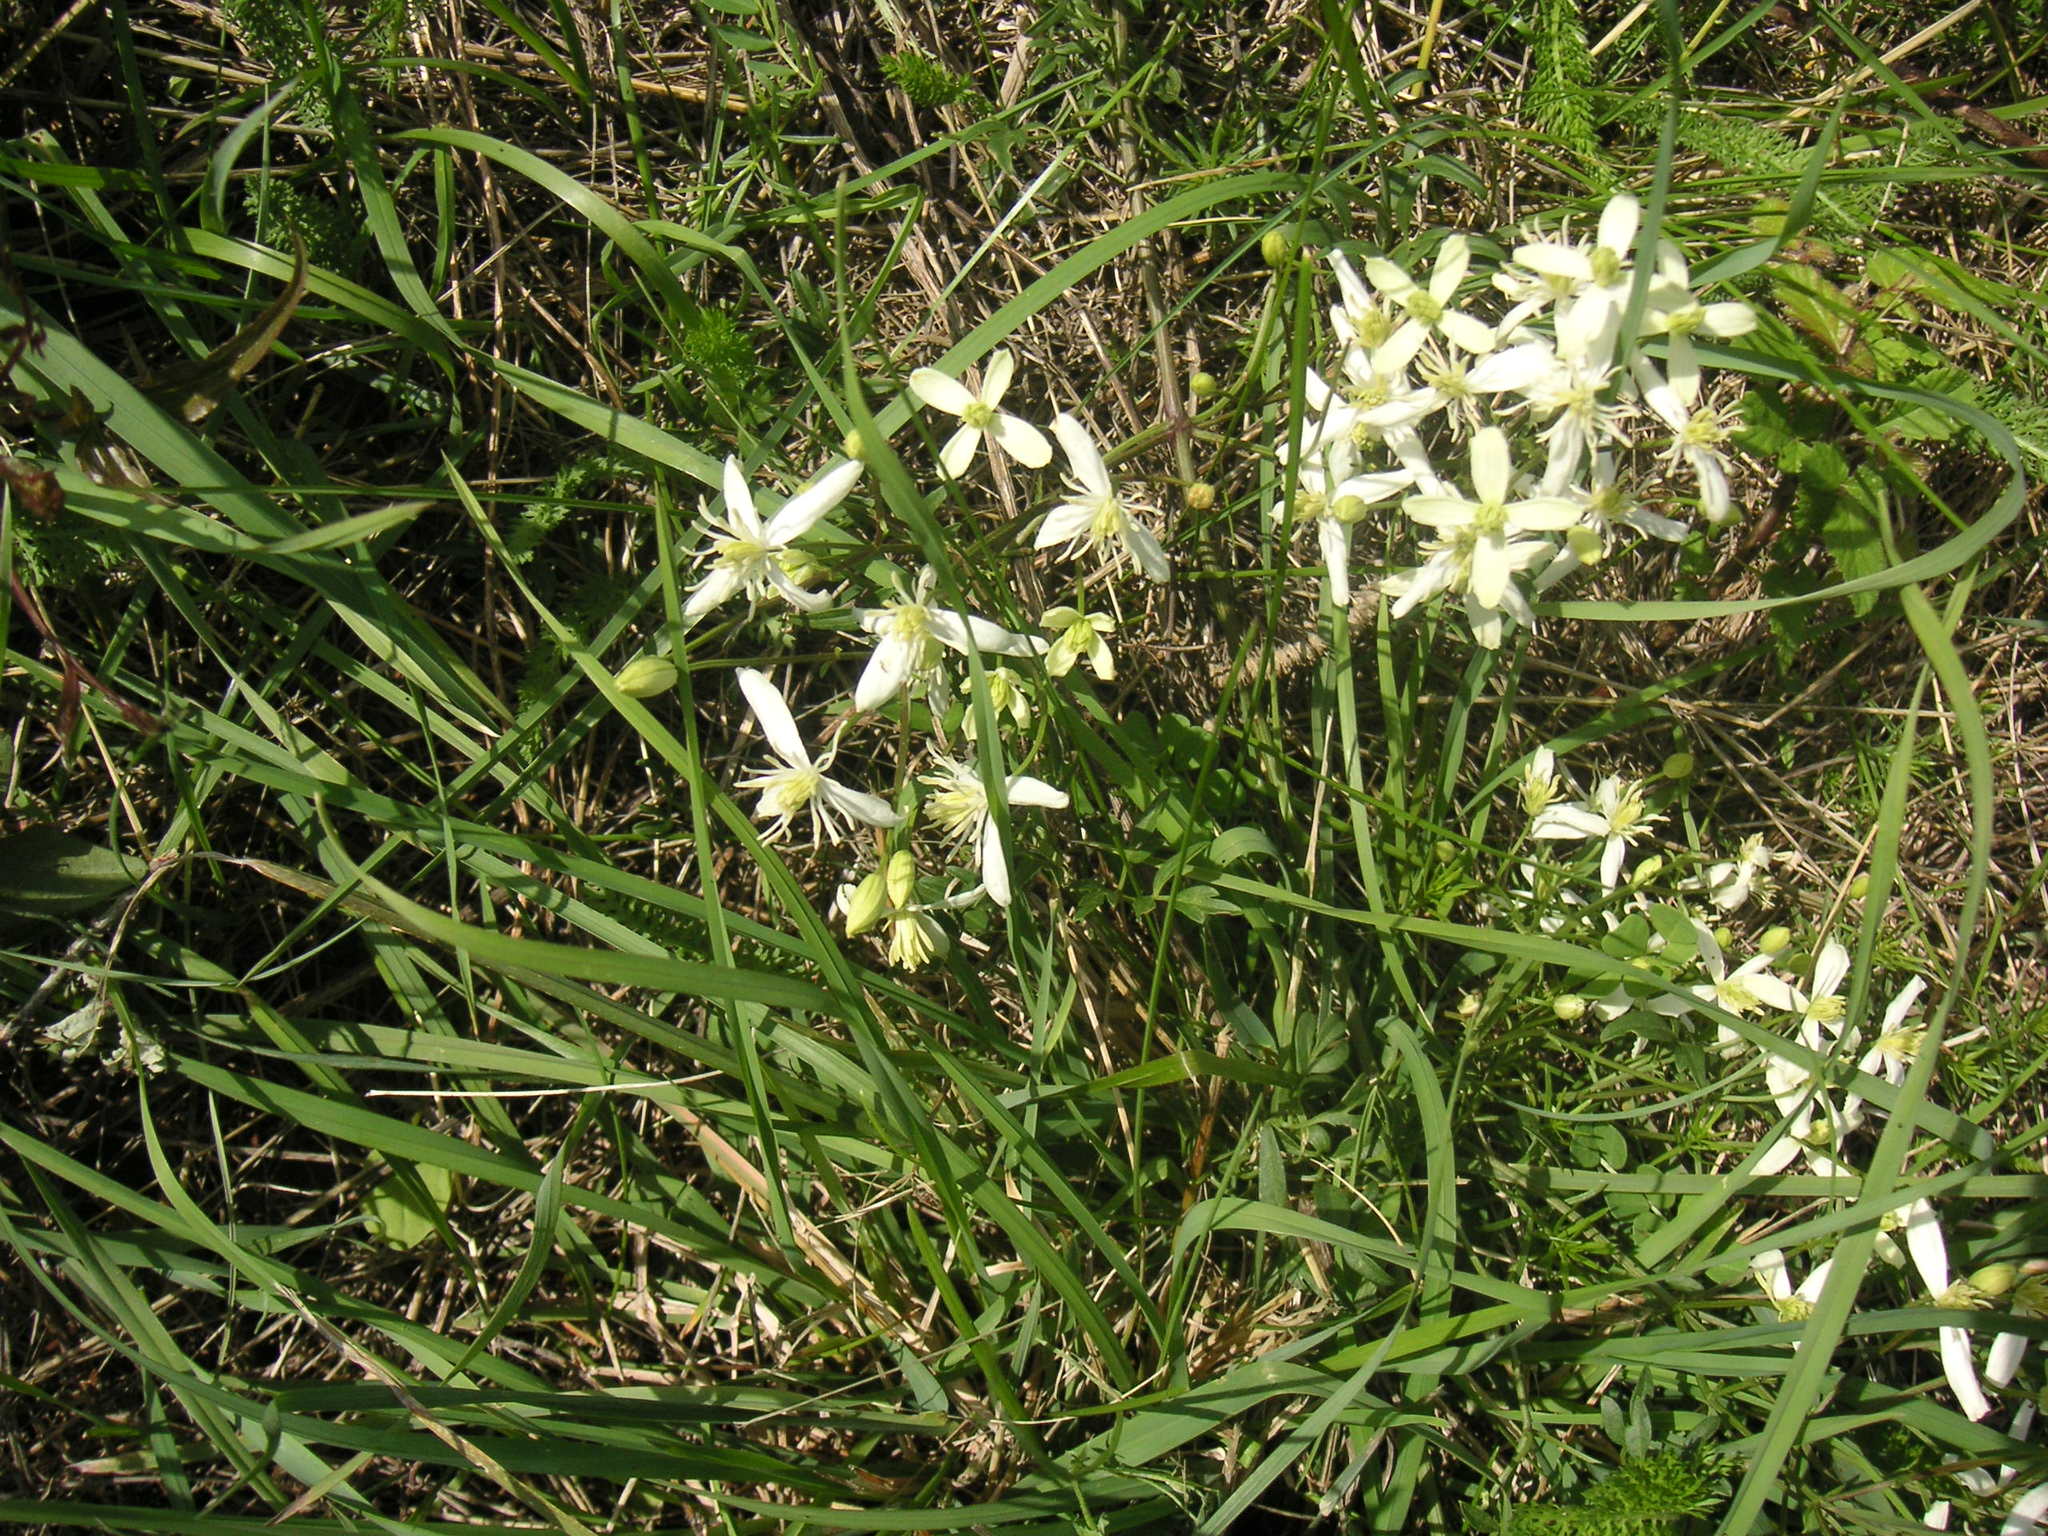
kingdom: Plantae
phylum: Tracheophyta
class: Magnoliopsida
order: Ranunculales
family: Ranunculaceae
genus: Clematis
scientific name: Clematis flammula
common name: Virgin's-bower
